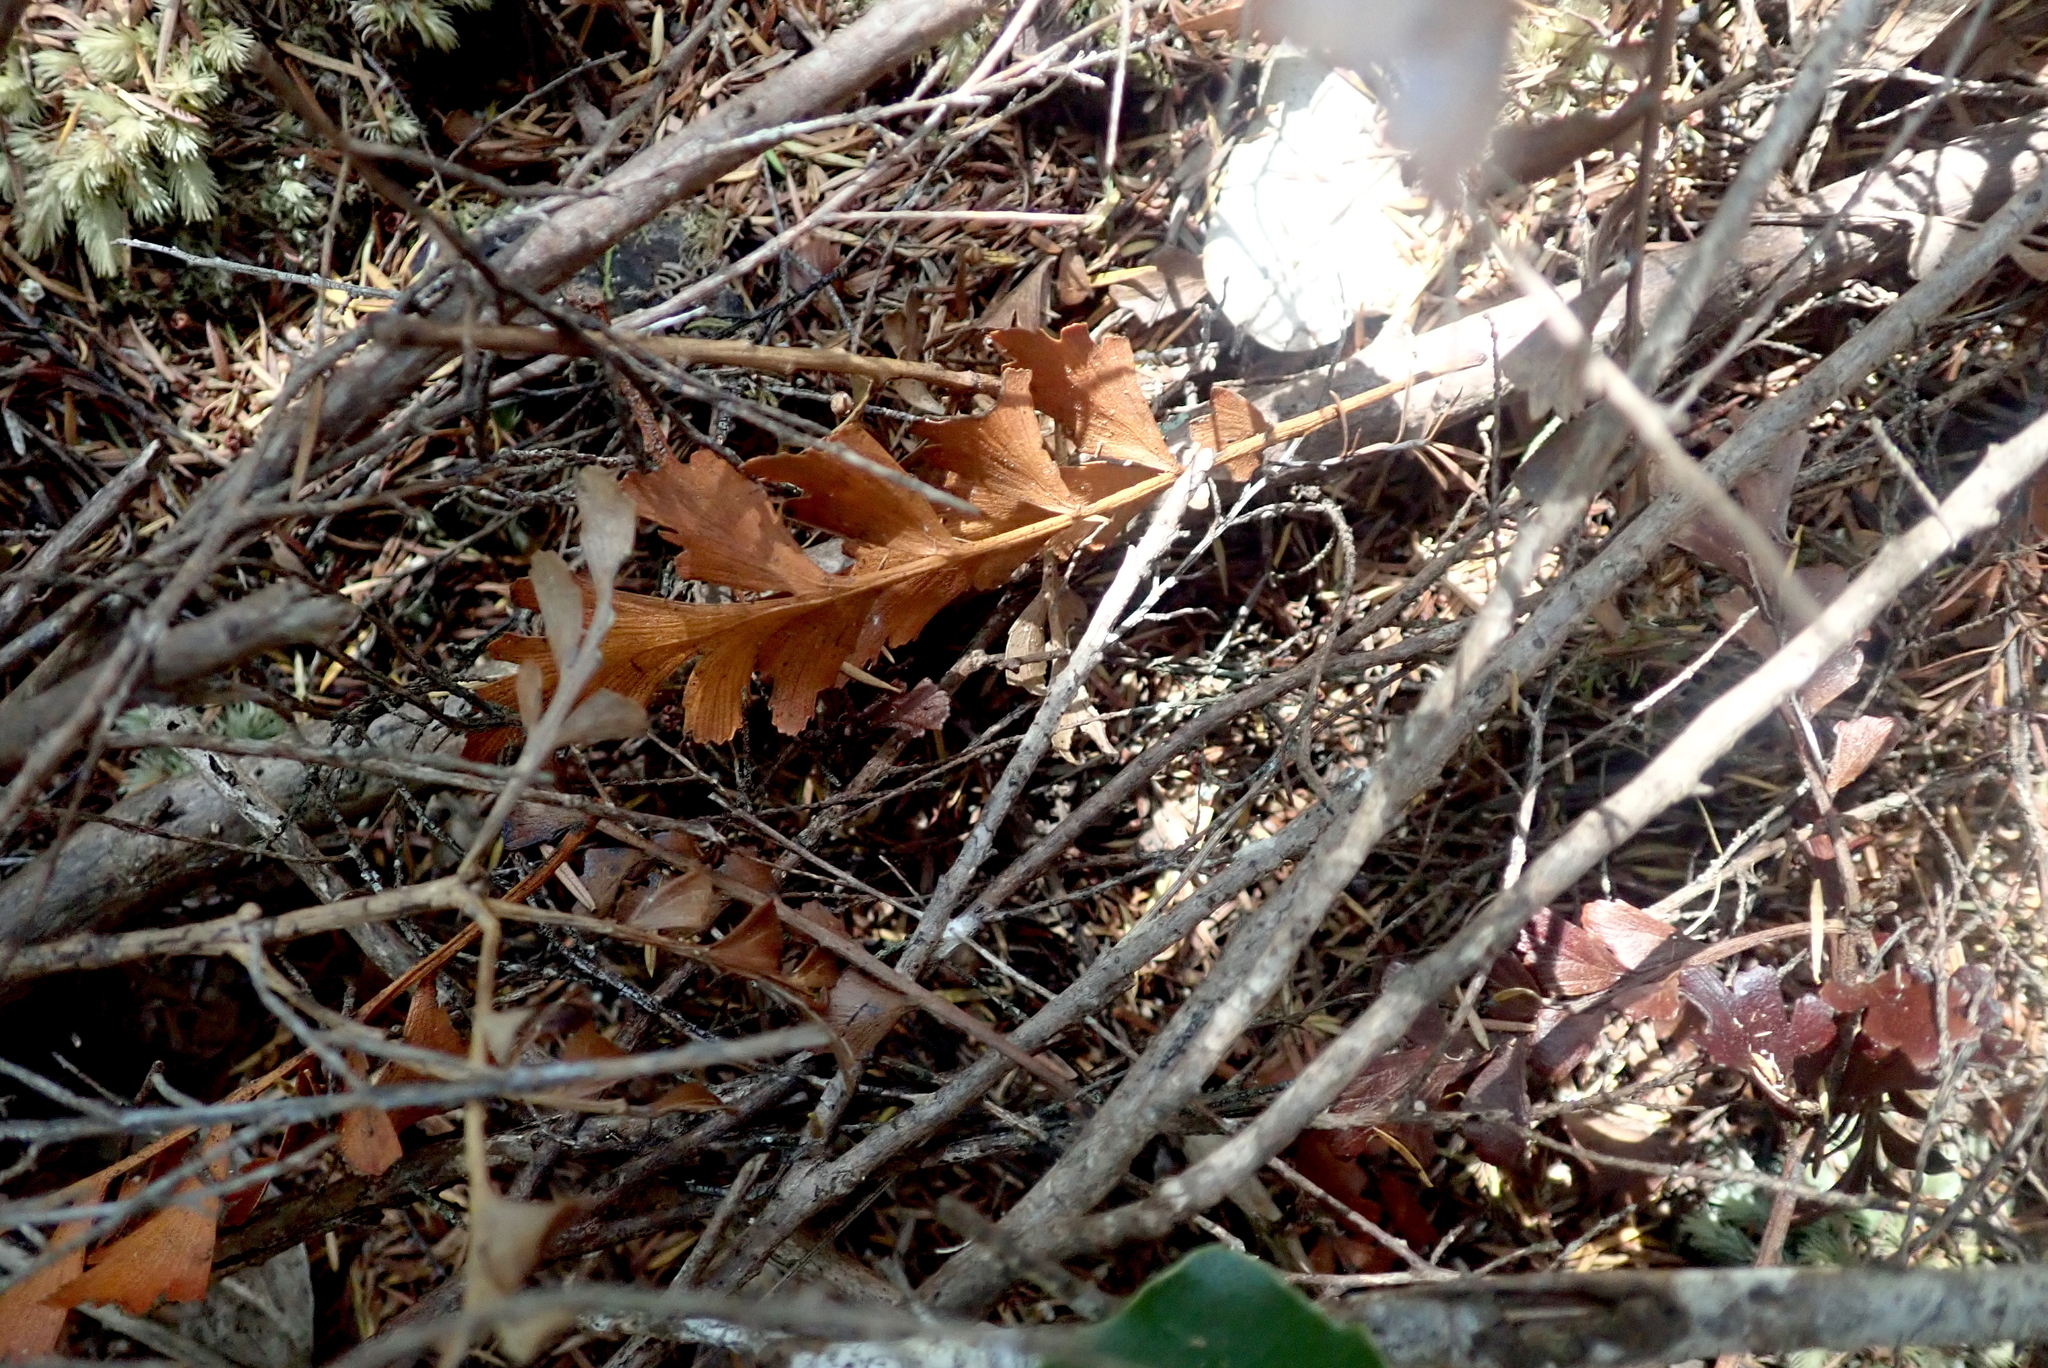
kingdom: Plantae
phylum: Tracheophyta
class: Pinopsida
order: Pinales
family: Phyllocladaceae
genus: Phyllocladus
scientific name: Phyllocladus trichomanoides
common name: Celery pine
